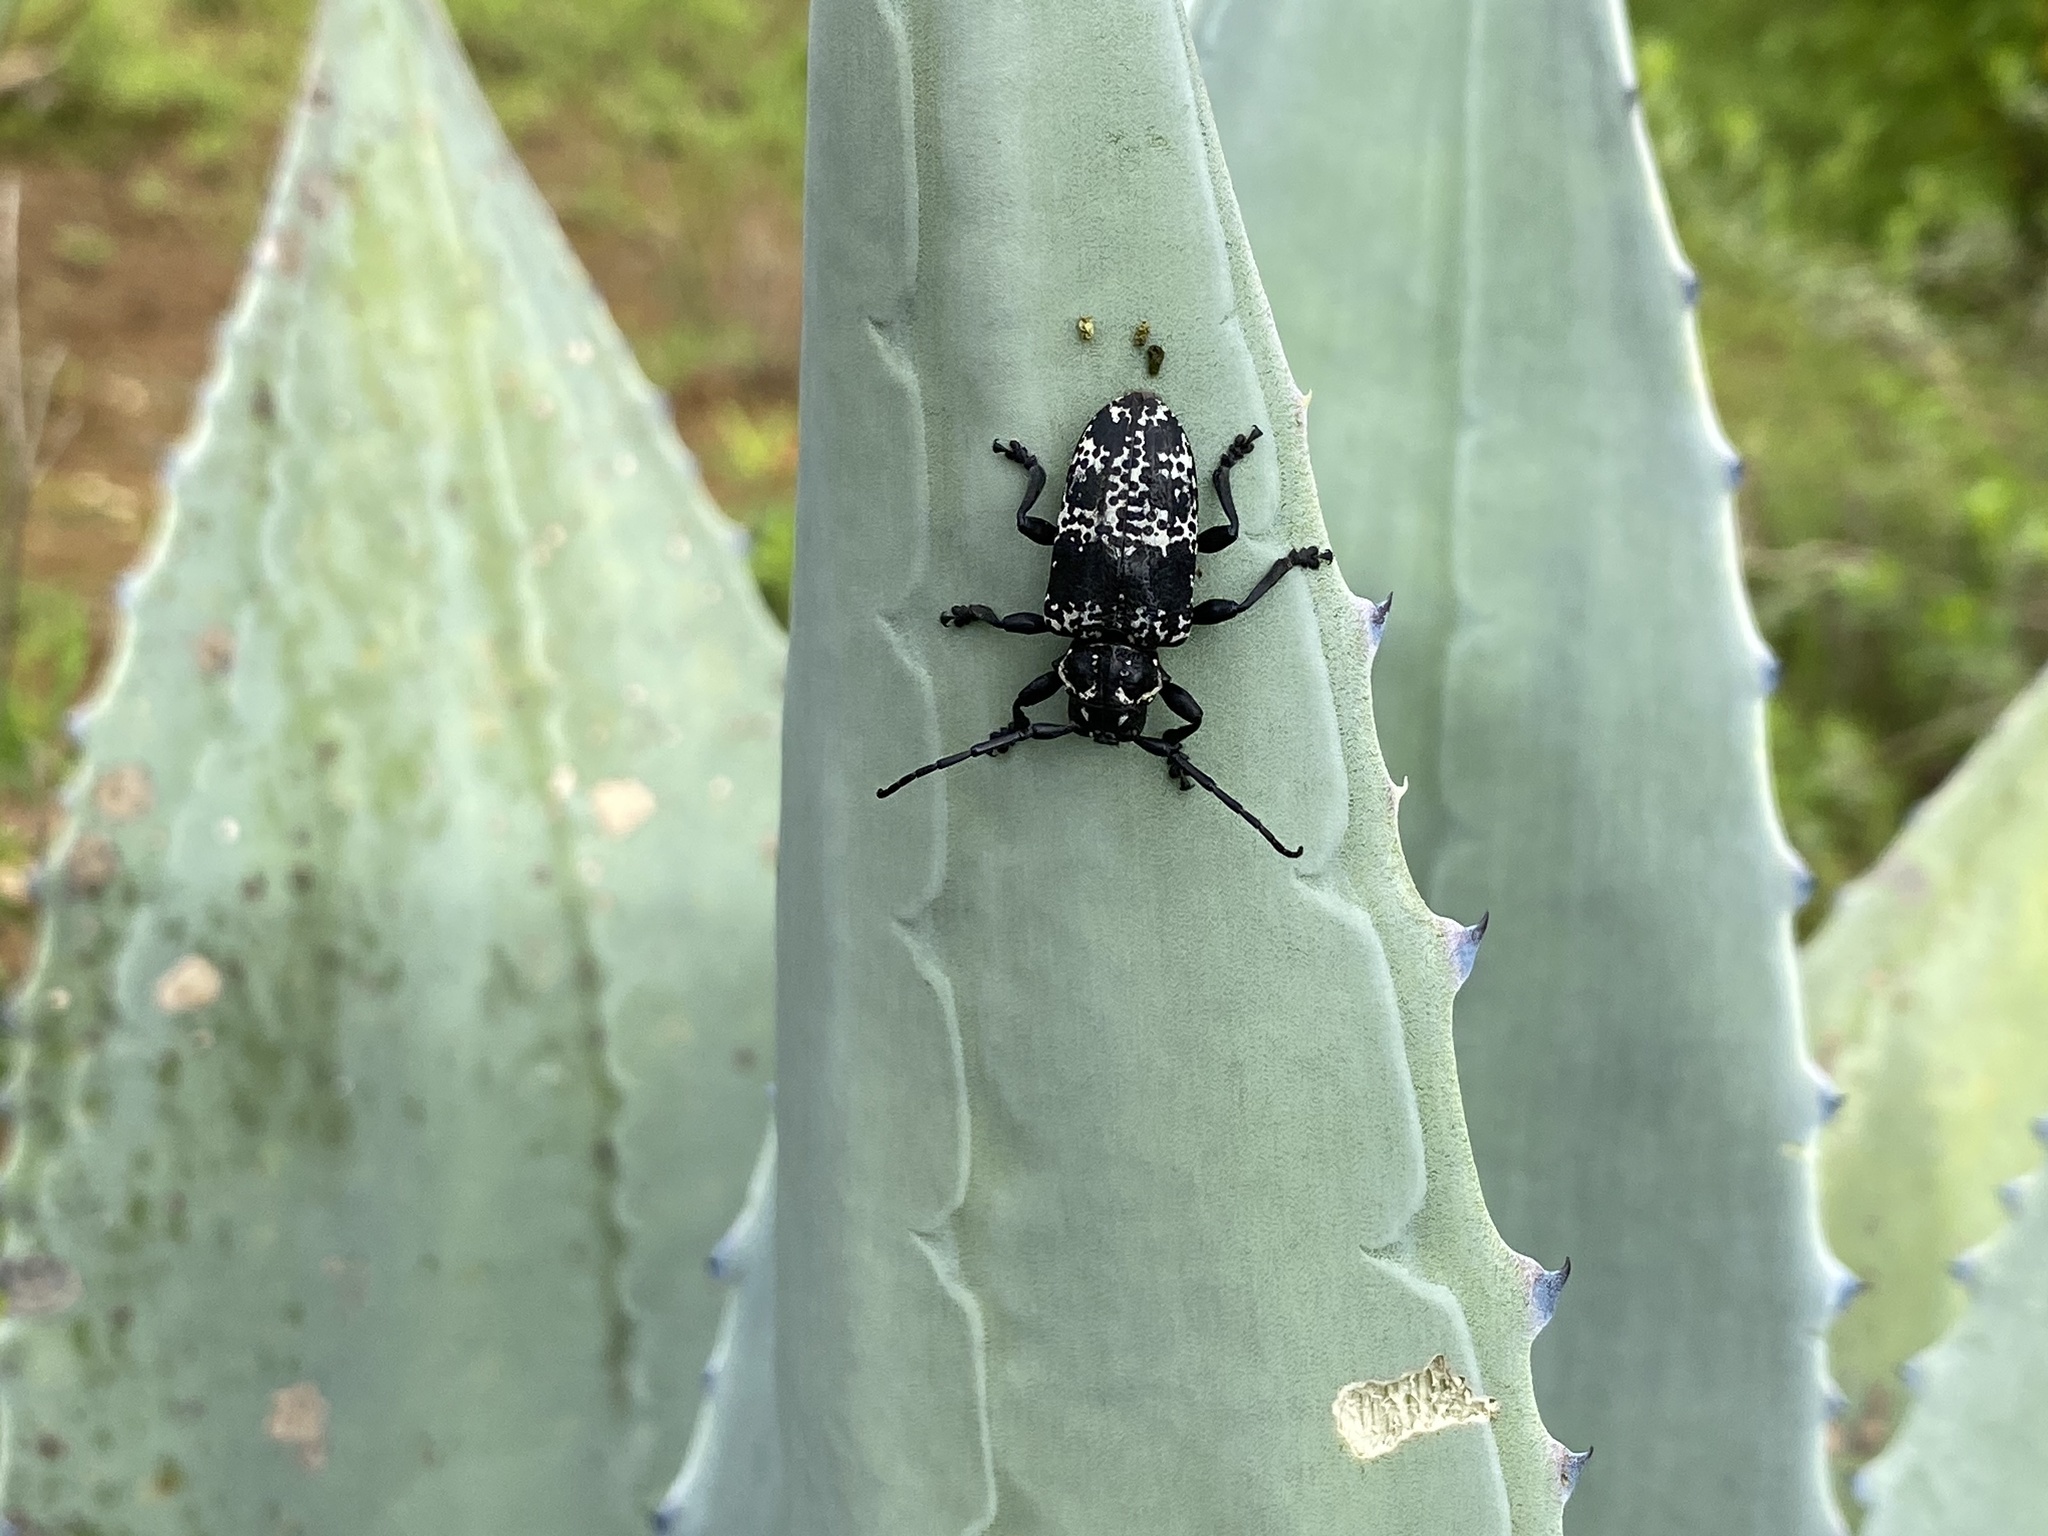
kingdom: Animalia
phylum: Arthropoda
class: Insecta
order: Coleoptera
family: Cerambycidae
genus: Acanthoderes
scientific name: Acanthoderes funeraria
